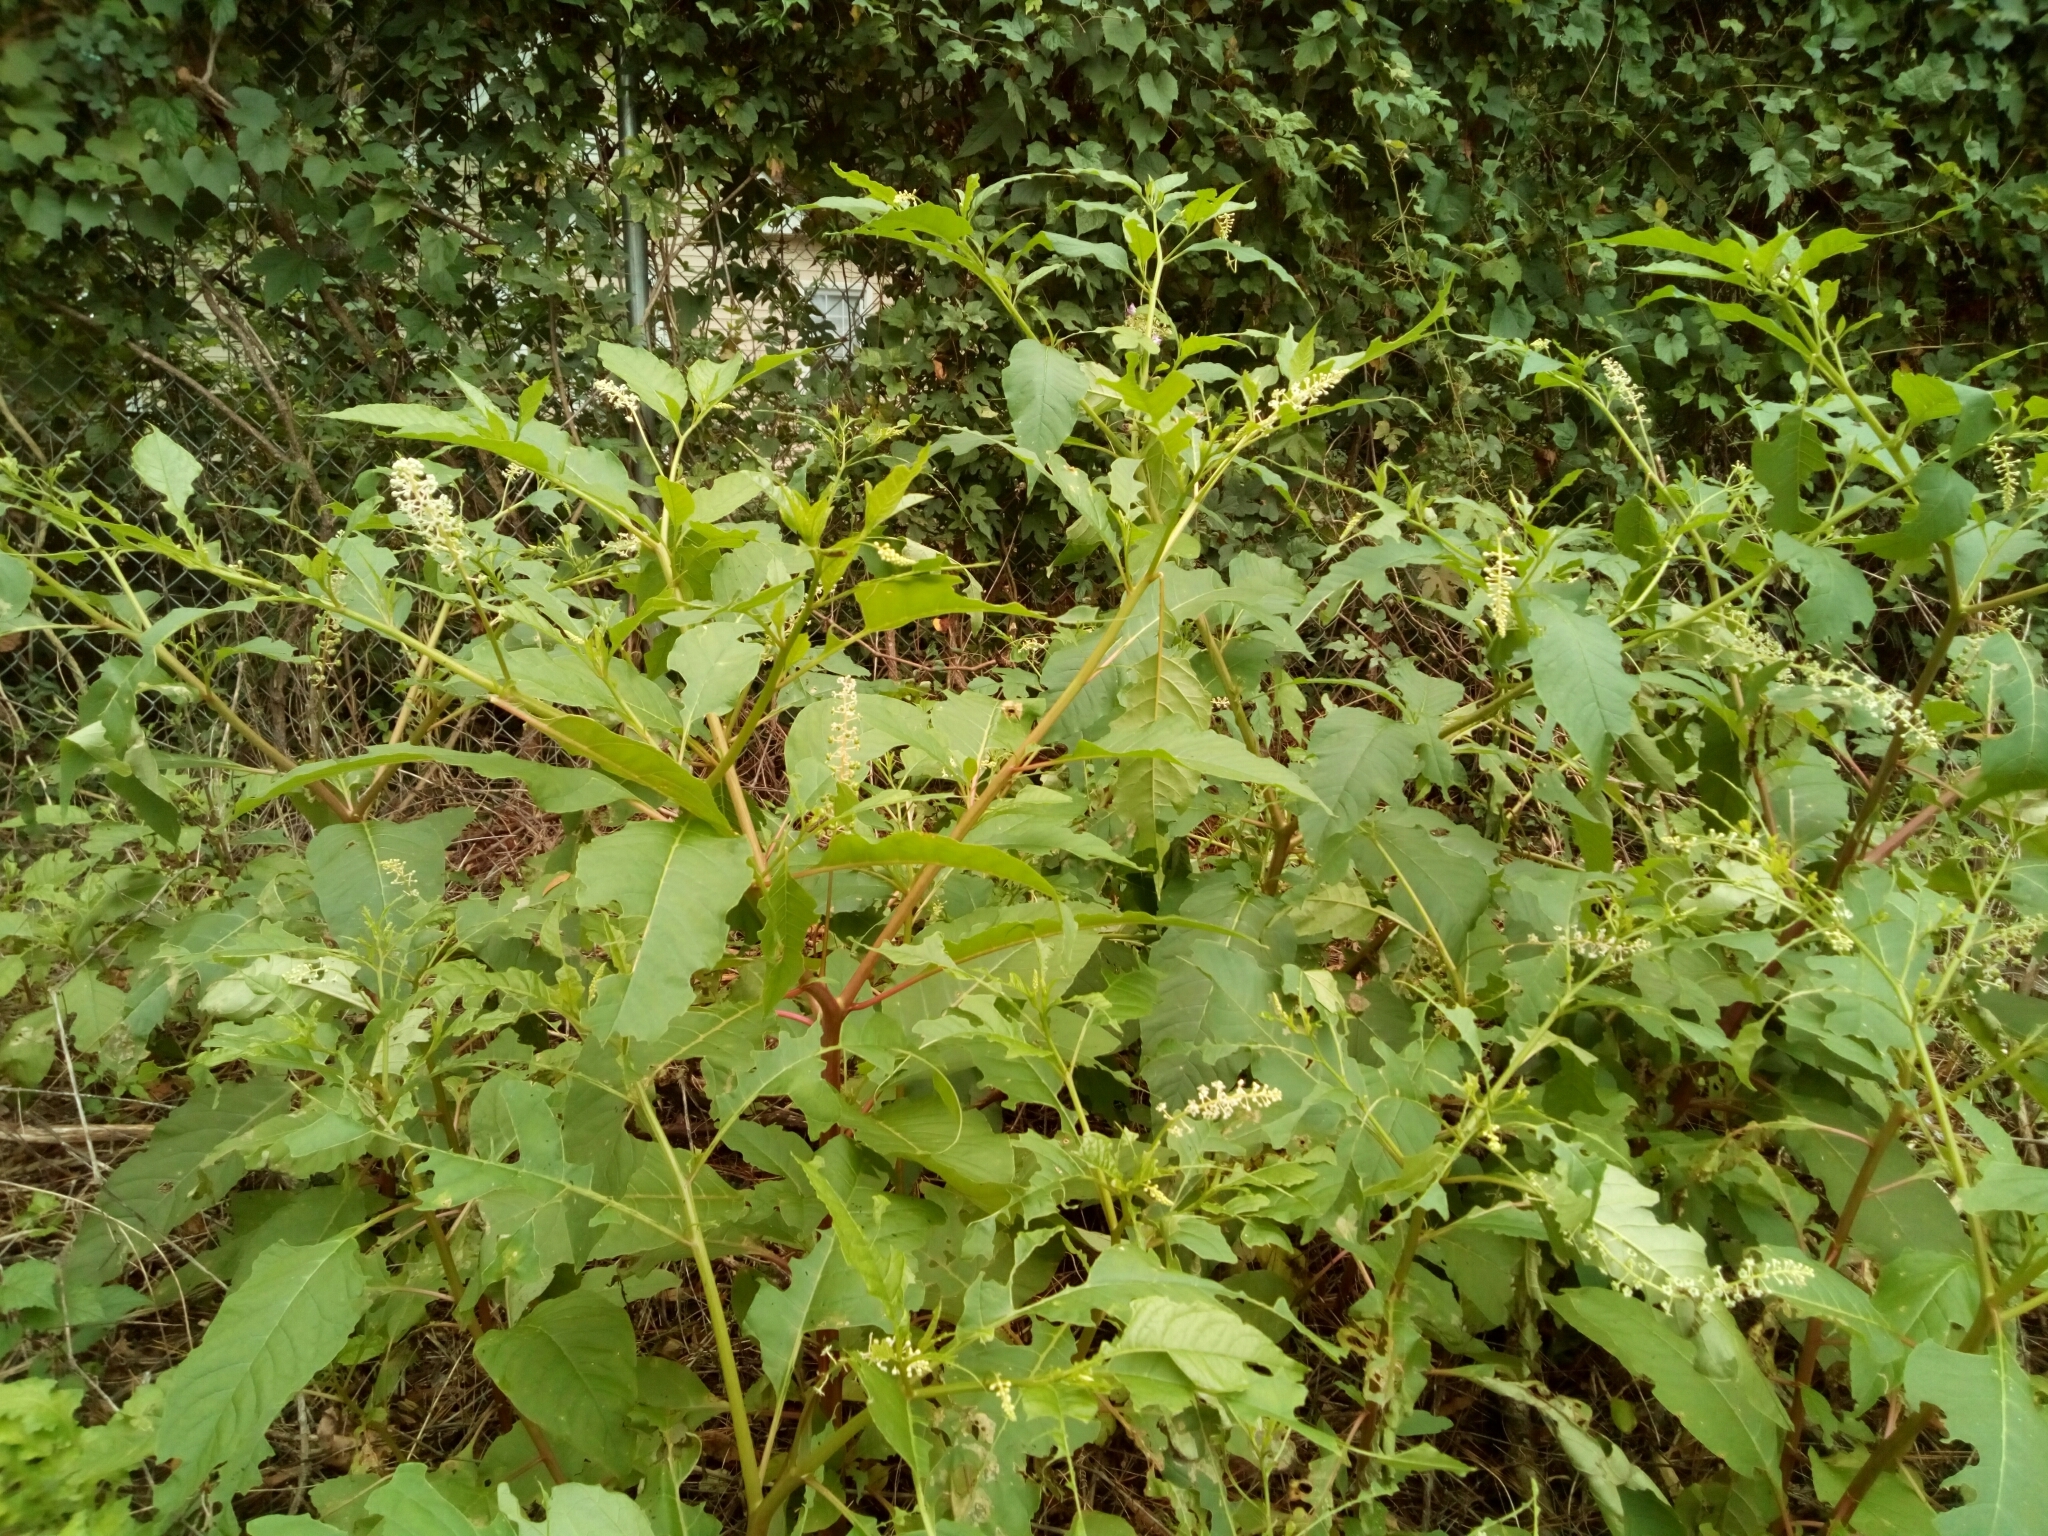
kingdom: Plantae
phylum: Tracheophyta
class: Magnoliopsida
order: Caryophyllales
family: Phytolaccaceae
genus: Phytolacca
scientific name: Phytolacca americana
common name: American pokeweed
